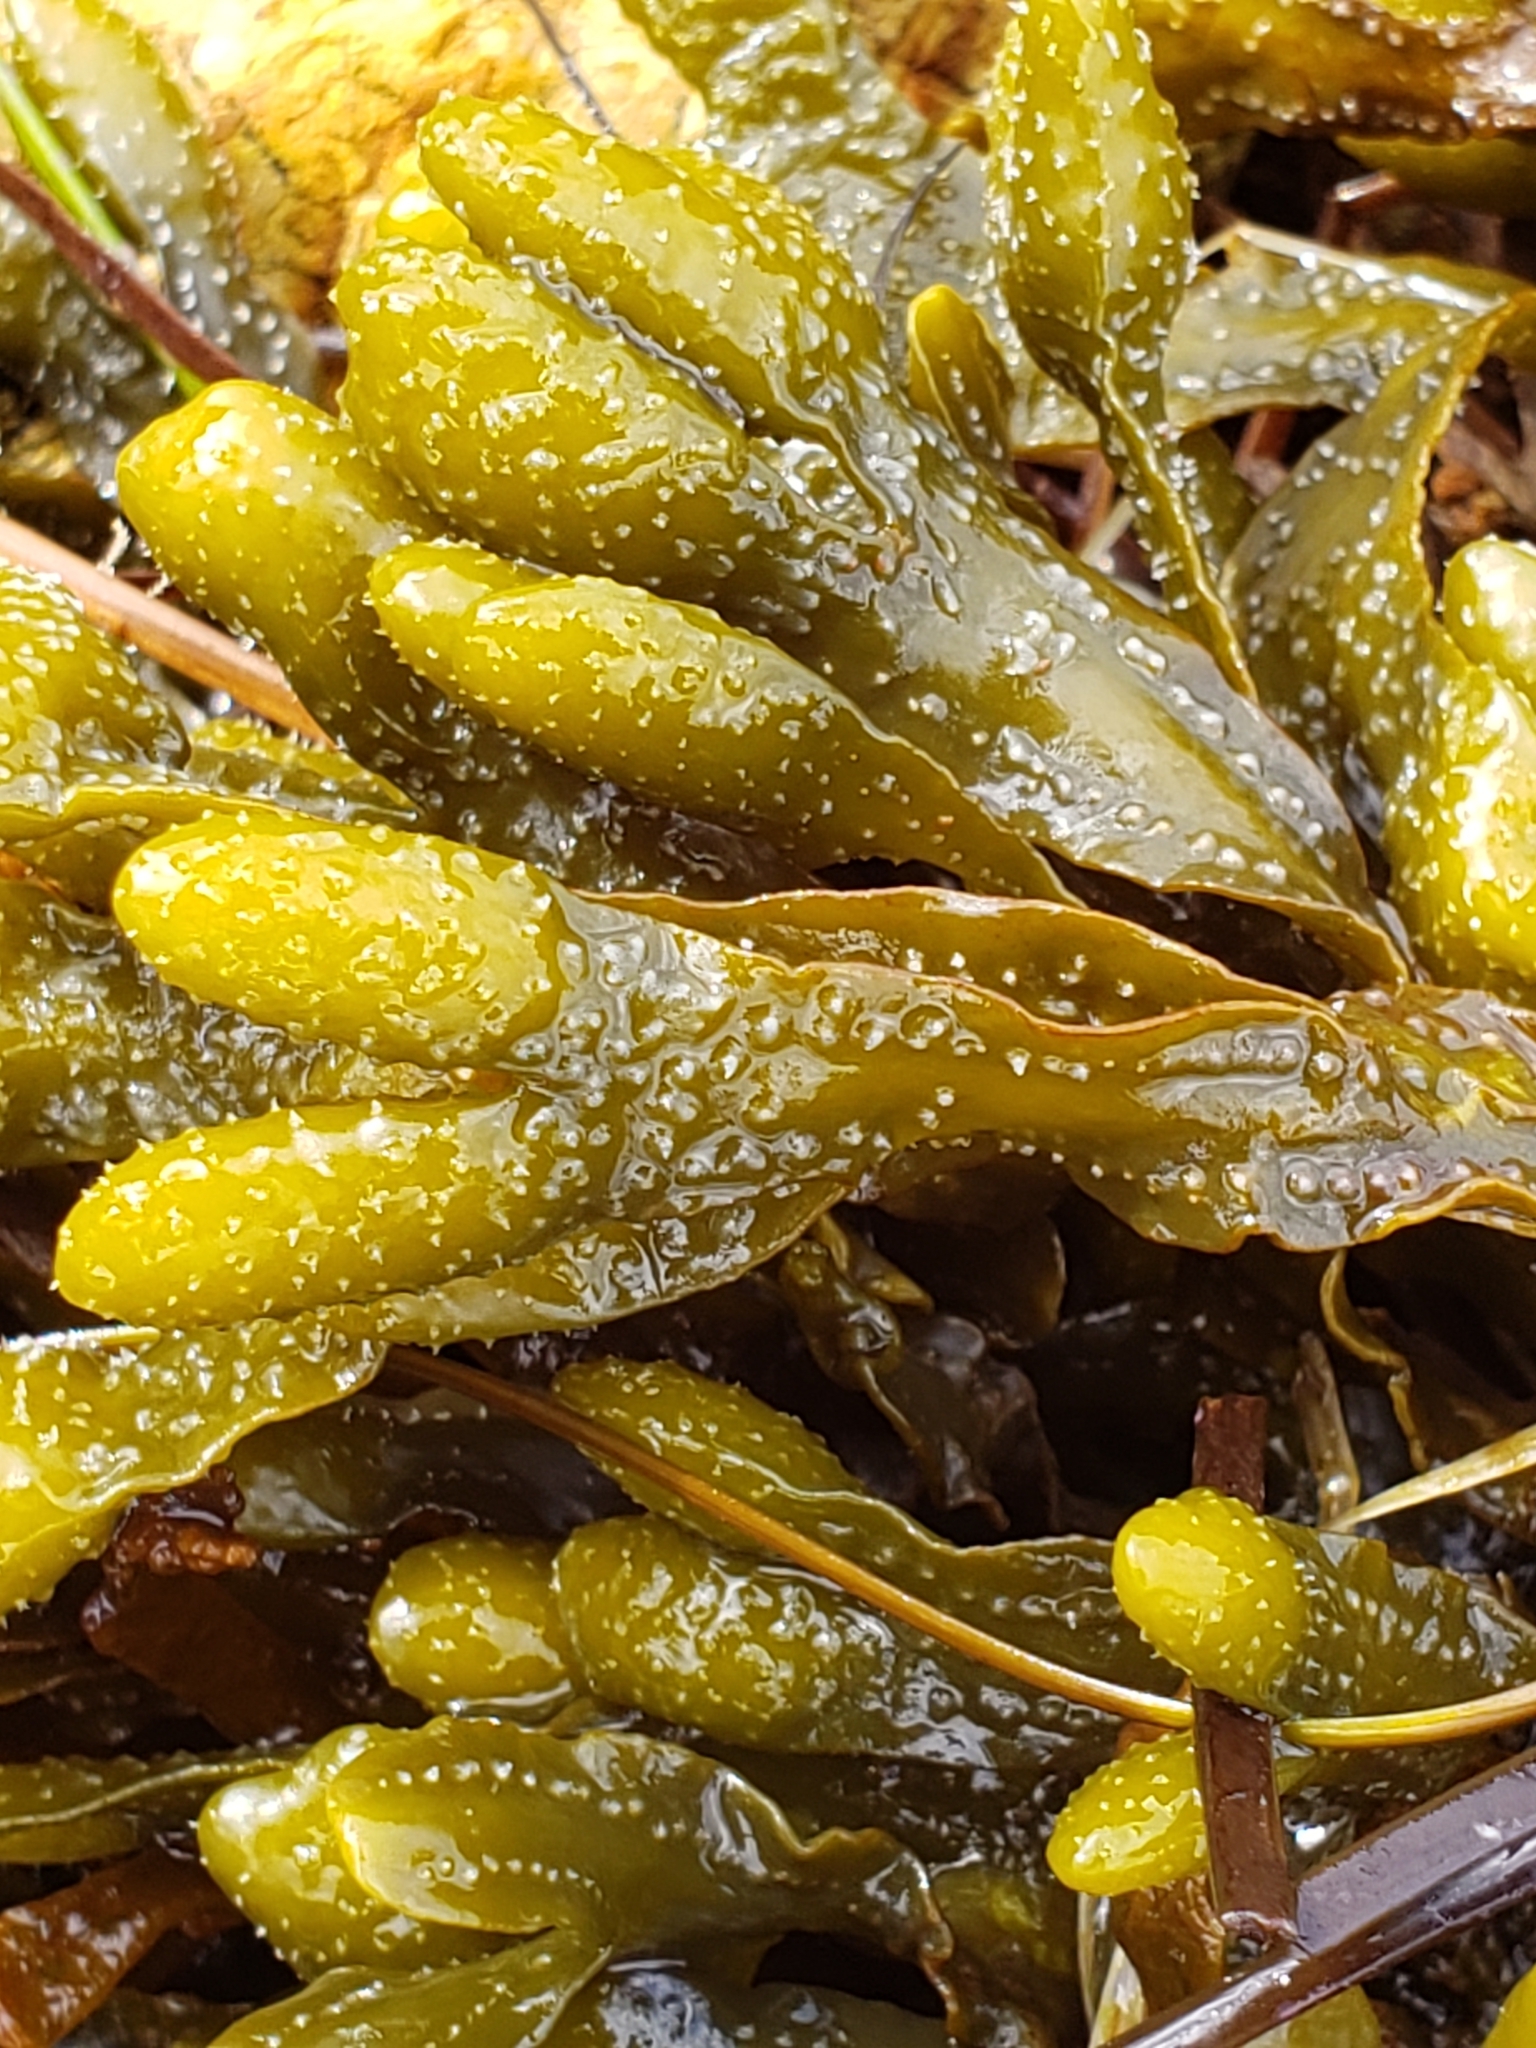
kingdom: Chromista
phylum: Ochrophyta
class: Phaeophyceae
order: Fucales
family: Fucaceae
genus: Pelvetiopsis
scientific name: Pelvetiopsis
